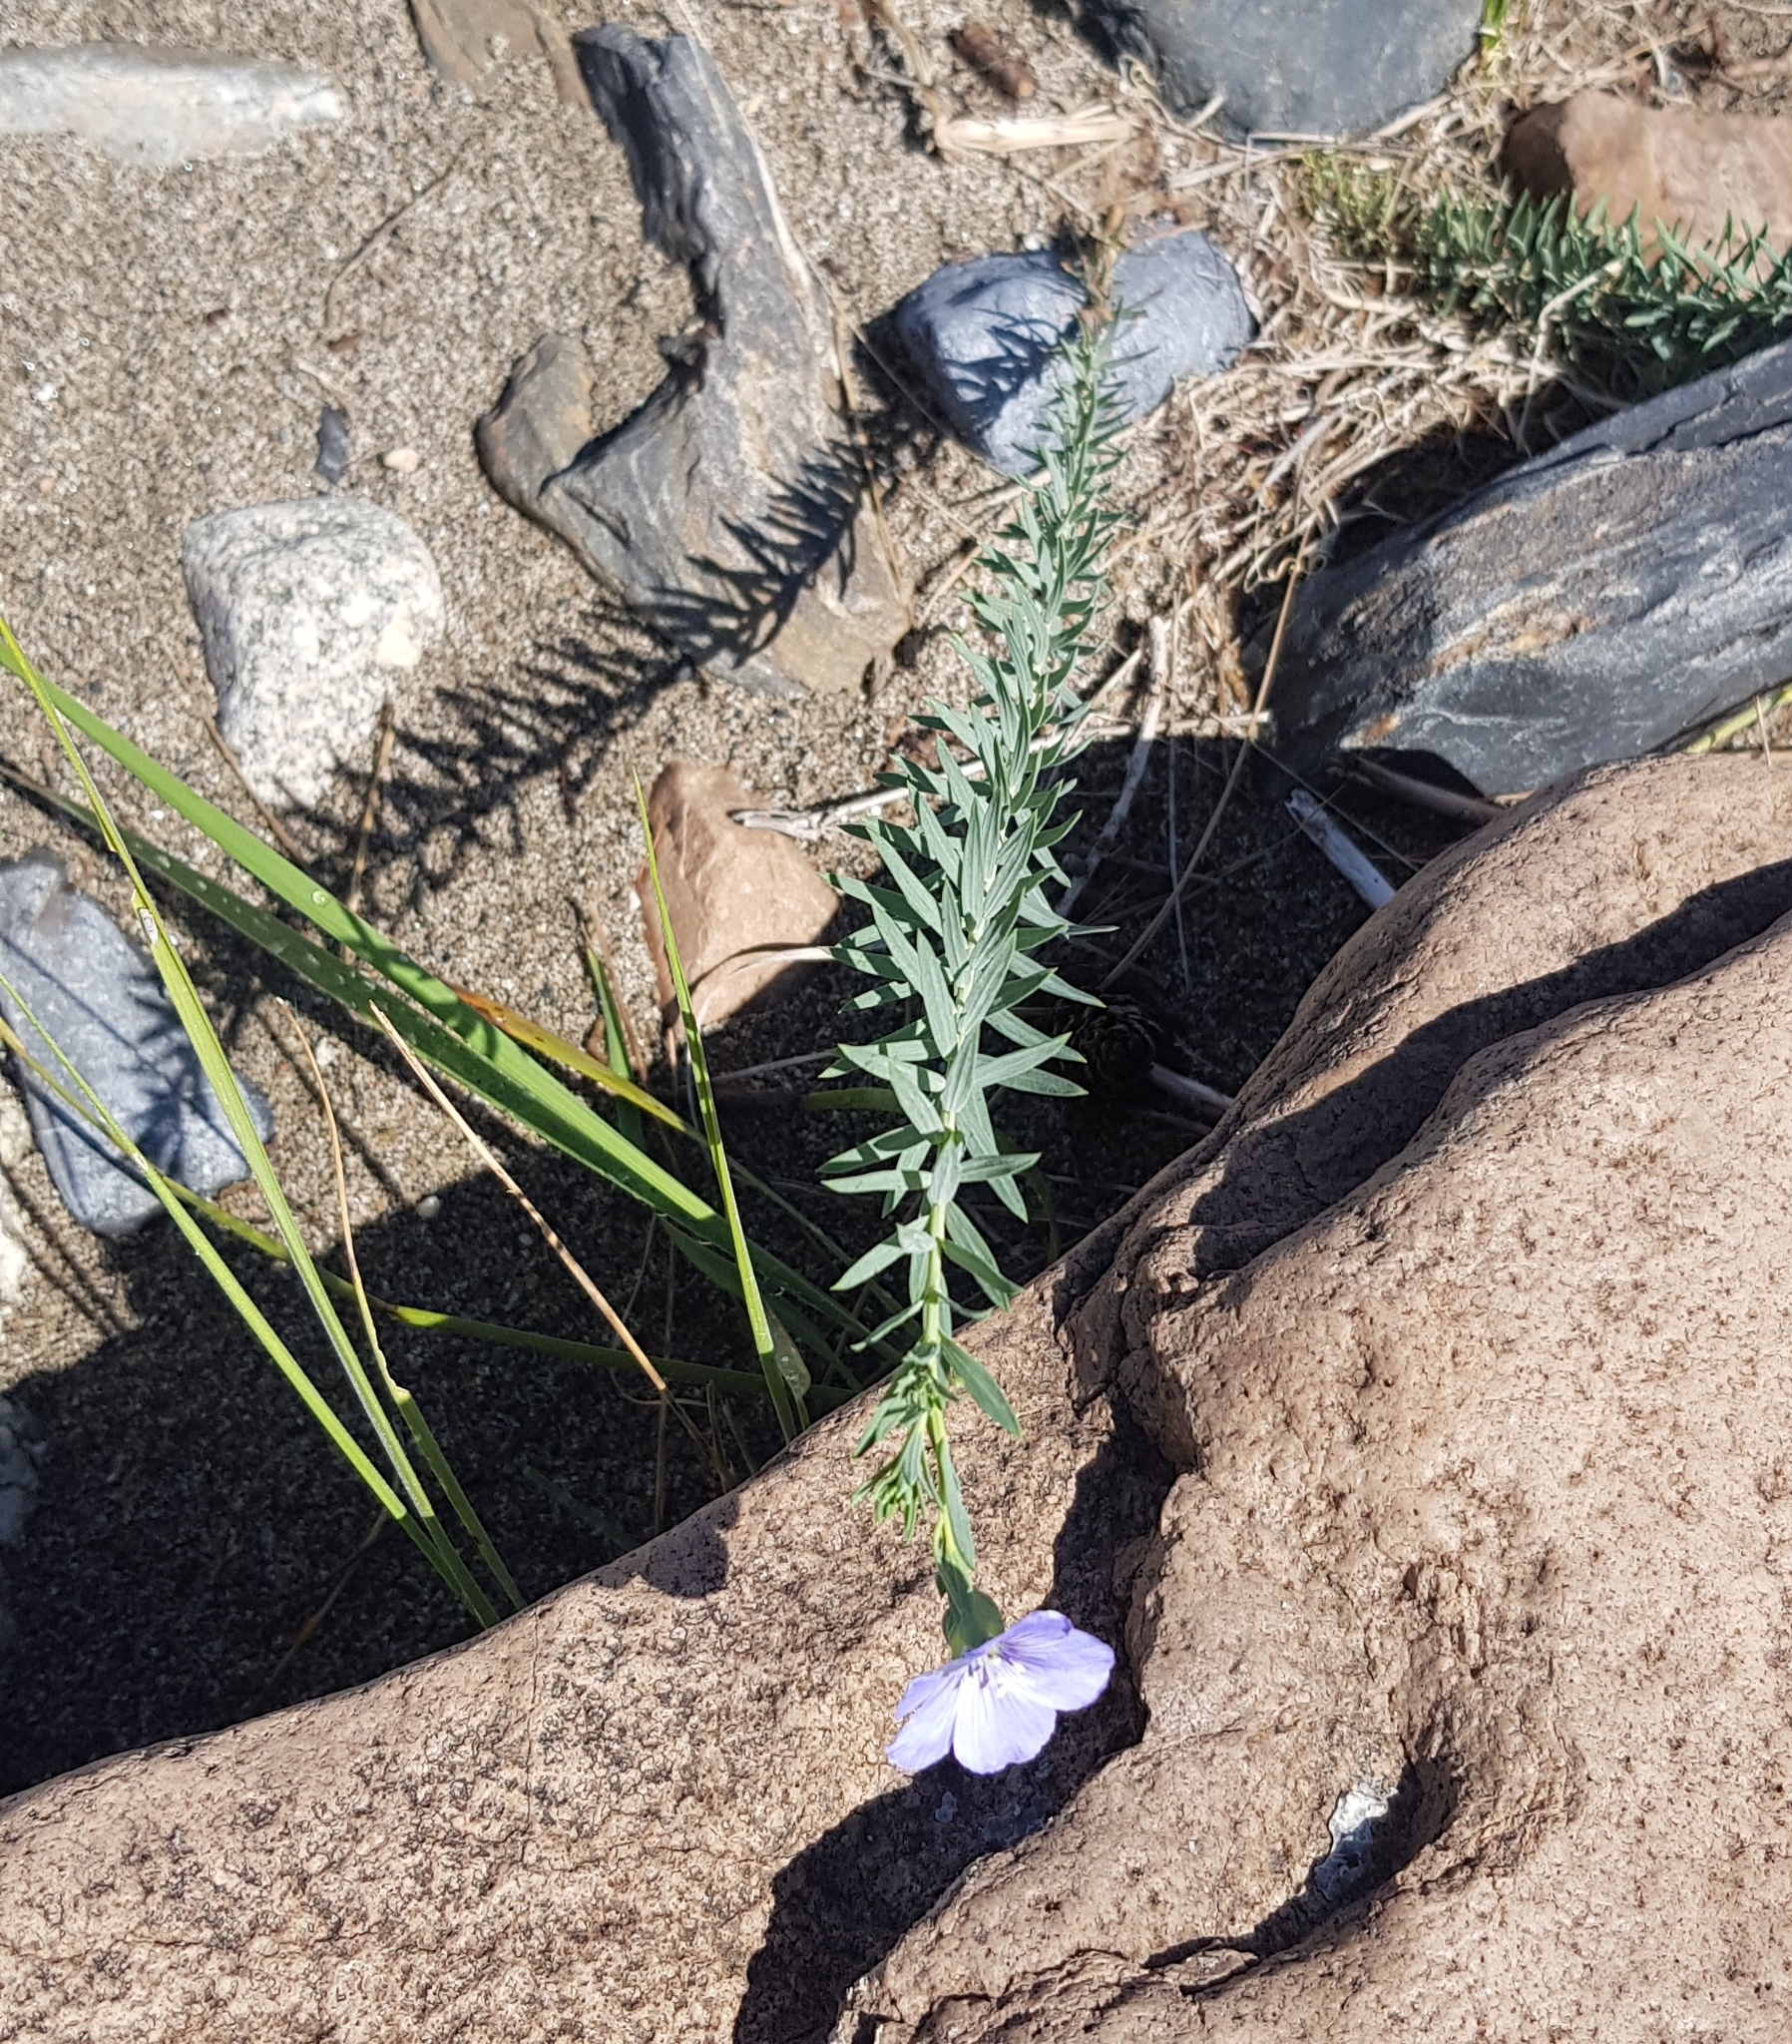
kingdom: Plantae
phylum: Tracheophyta
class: Magnoliopsida
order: Malpighiales
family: Linaceae
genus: Linum
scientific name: Linum perenne
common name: Blue flax
